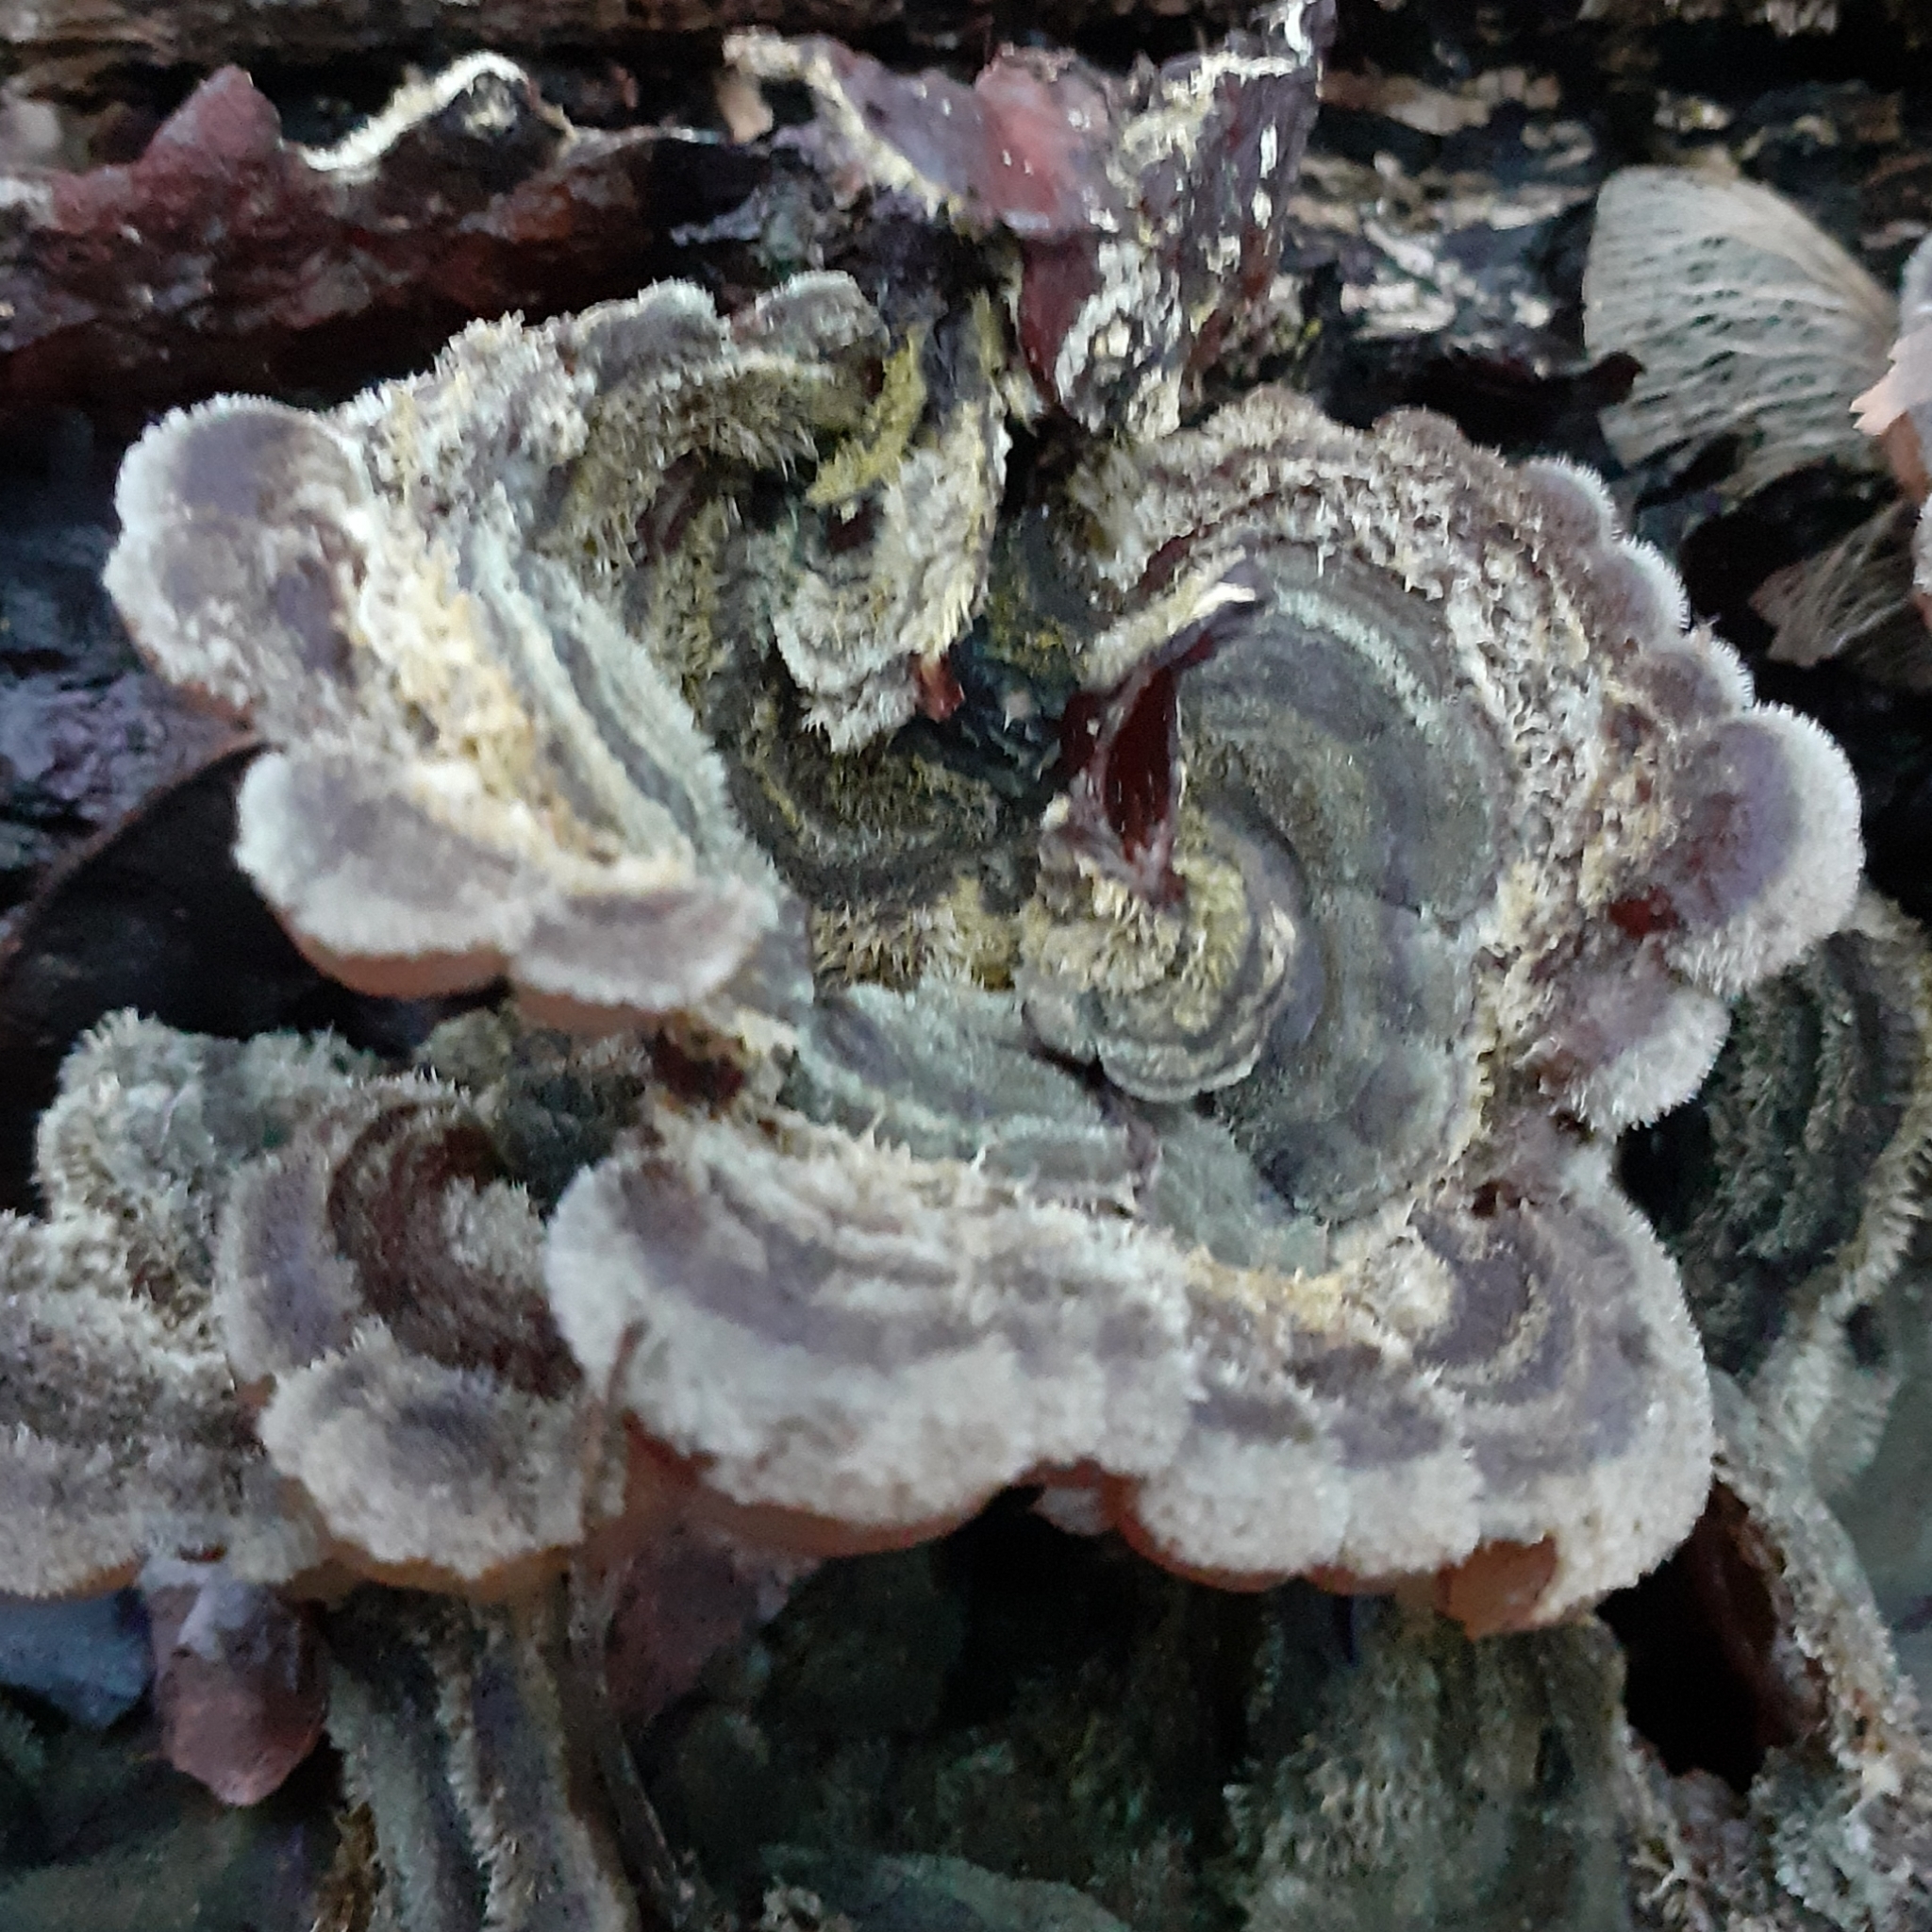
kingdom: Fungi
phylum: Basidiomycota
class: Agaricomycetes
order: Auriculariales
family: Auriculariaceae
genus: Auricularia
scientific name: Auricularia mesenterica
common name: Tripe fungus
